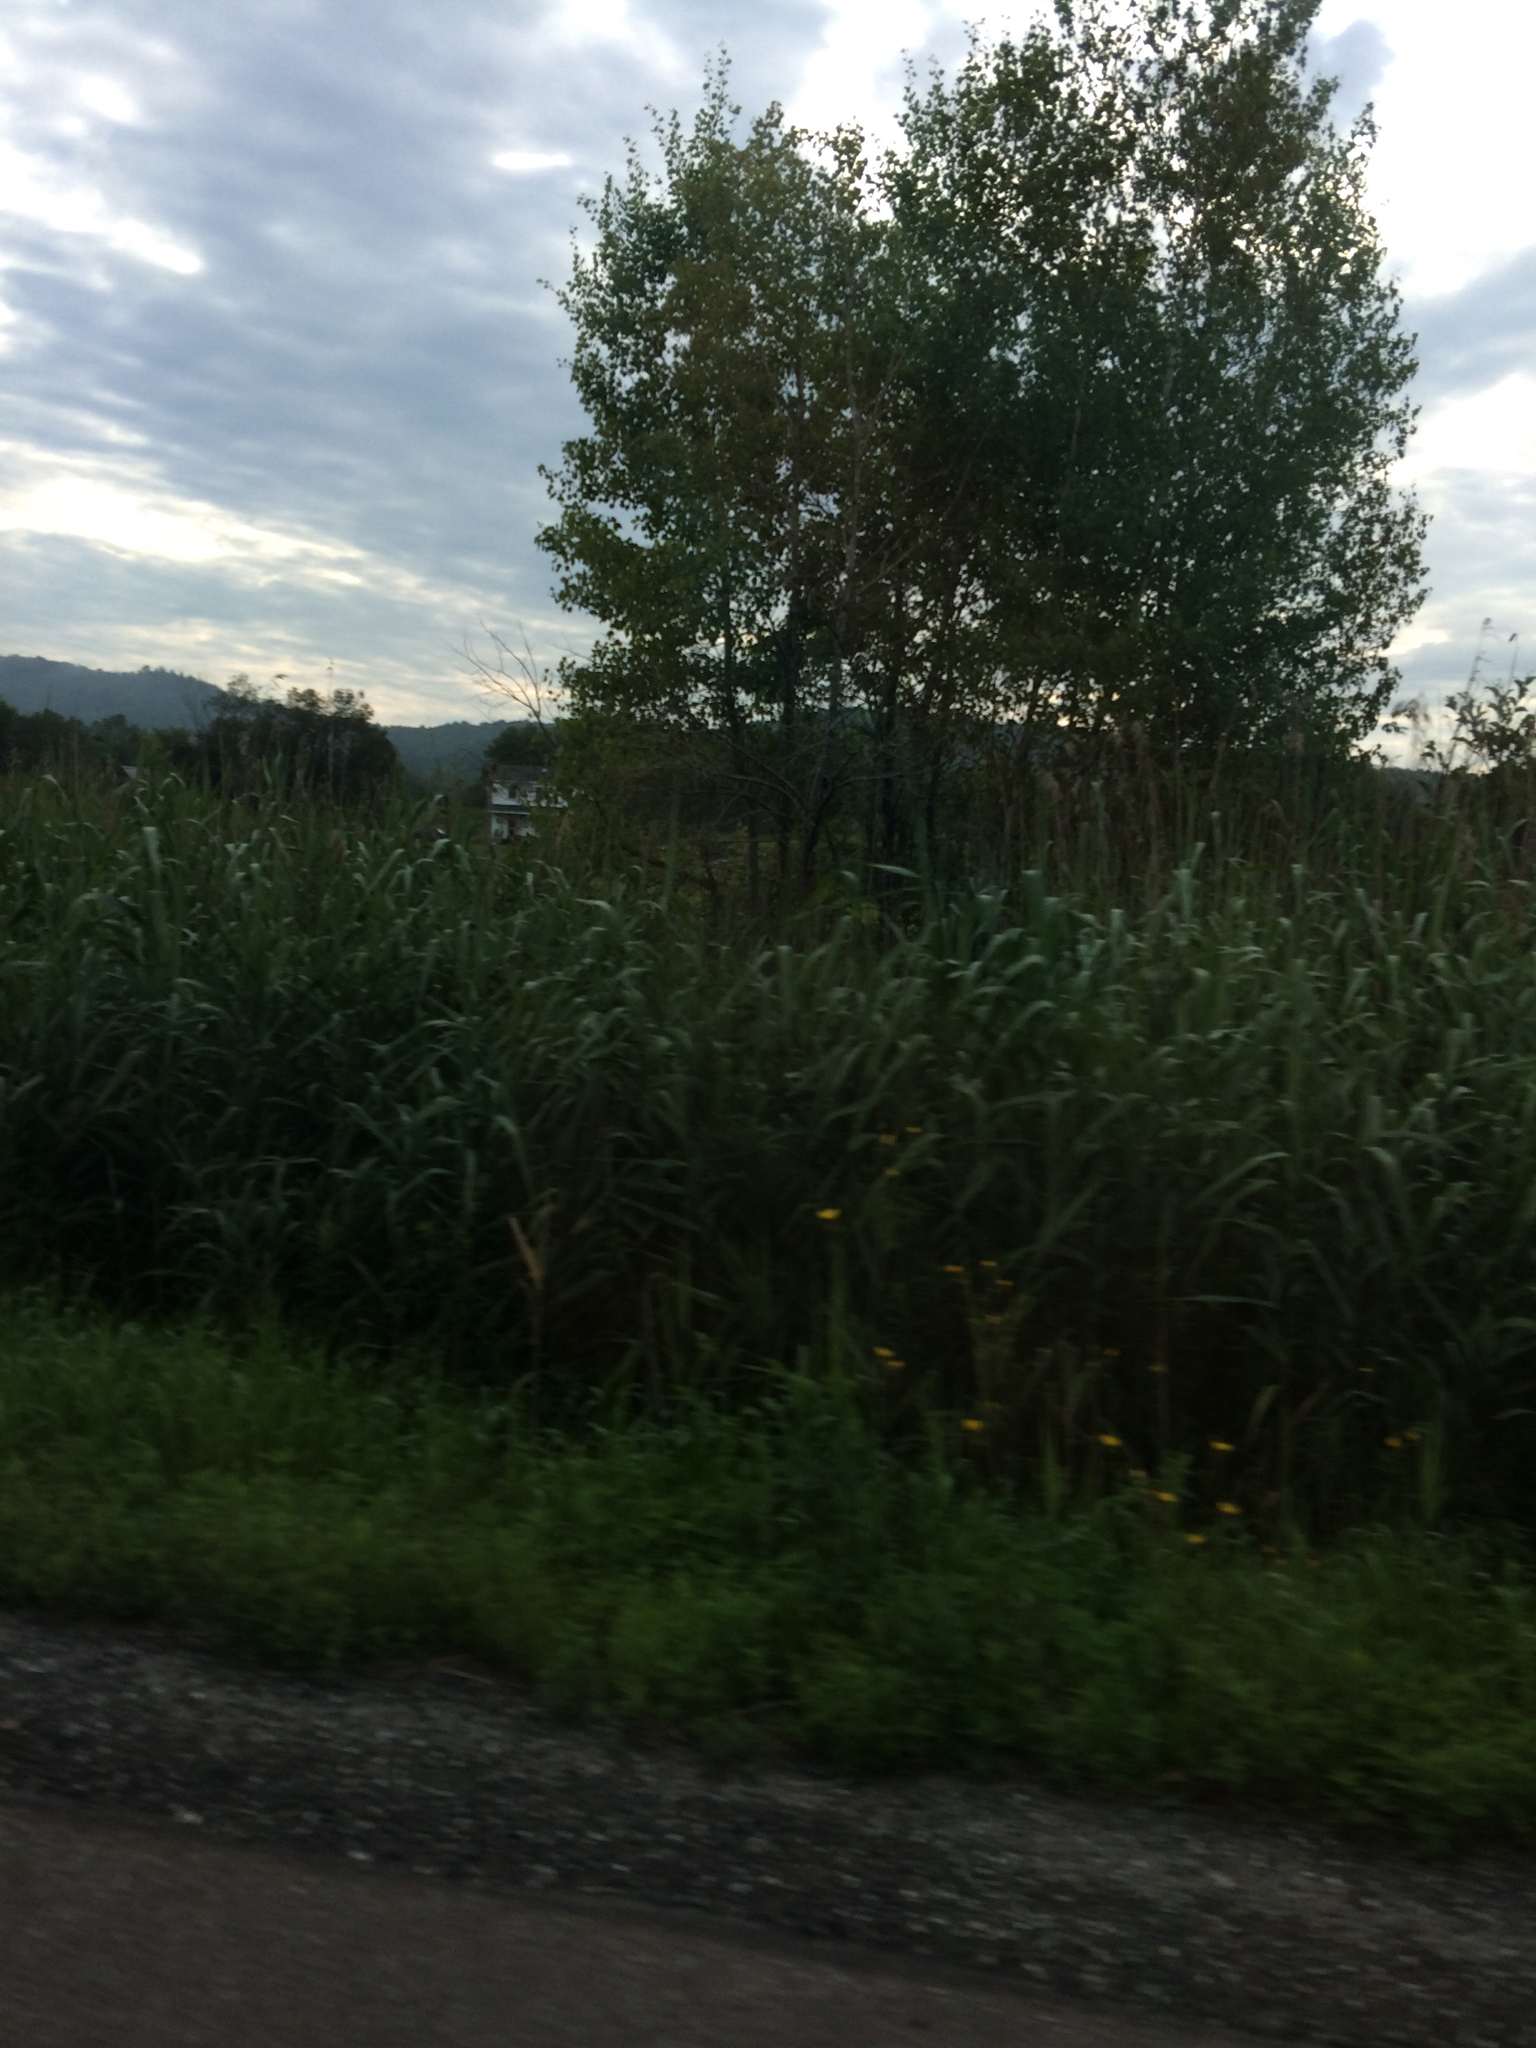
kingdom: Plantae
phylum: Tracheophyta
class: Liliopsida
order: Poales
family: Poaceae
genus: Phragmites
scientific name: Phragmites australis
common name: Common reed
